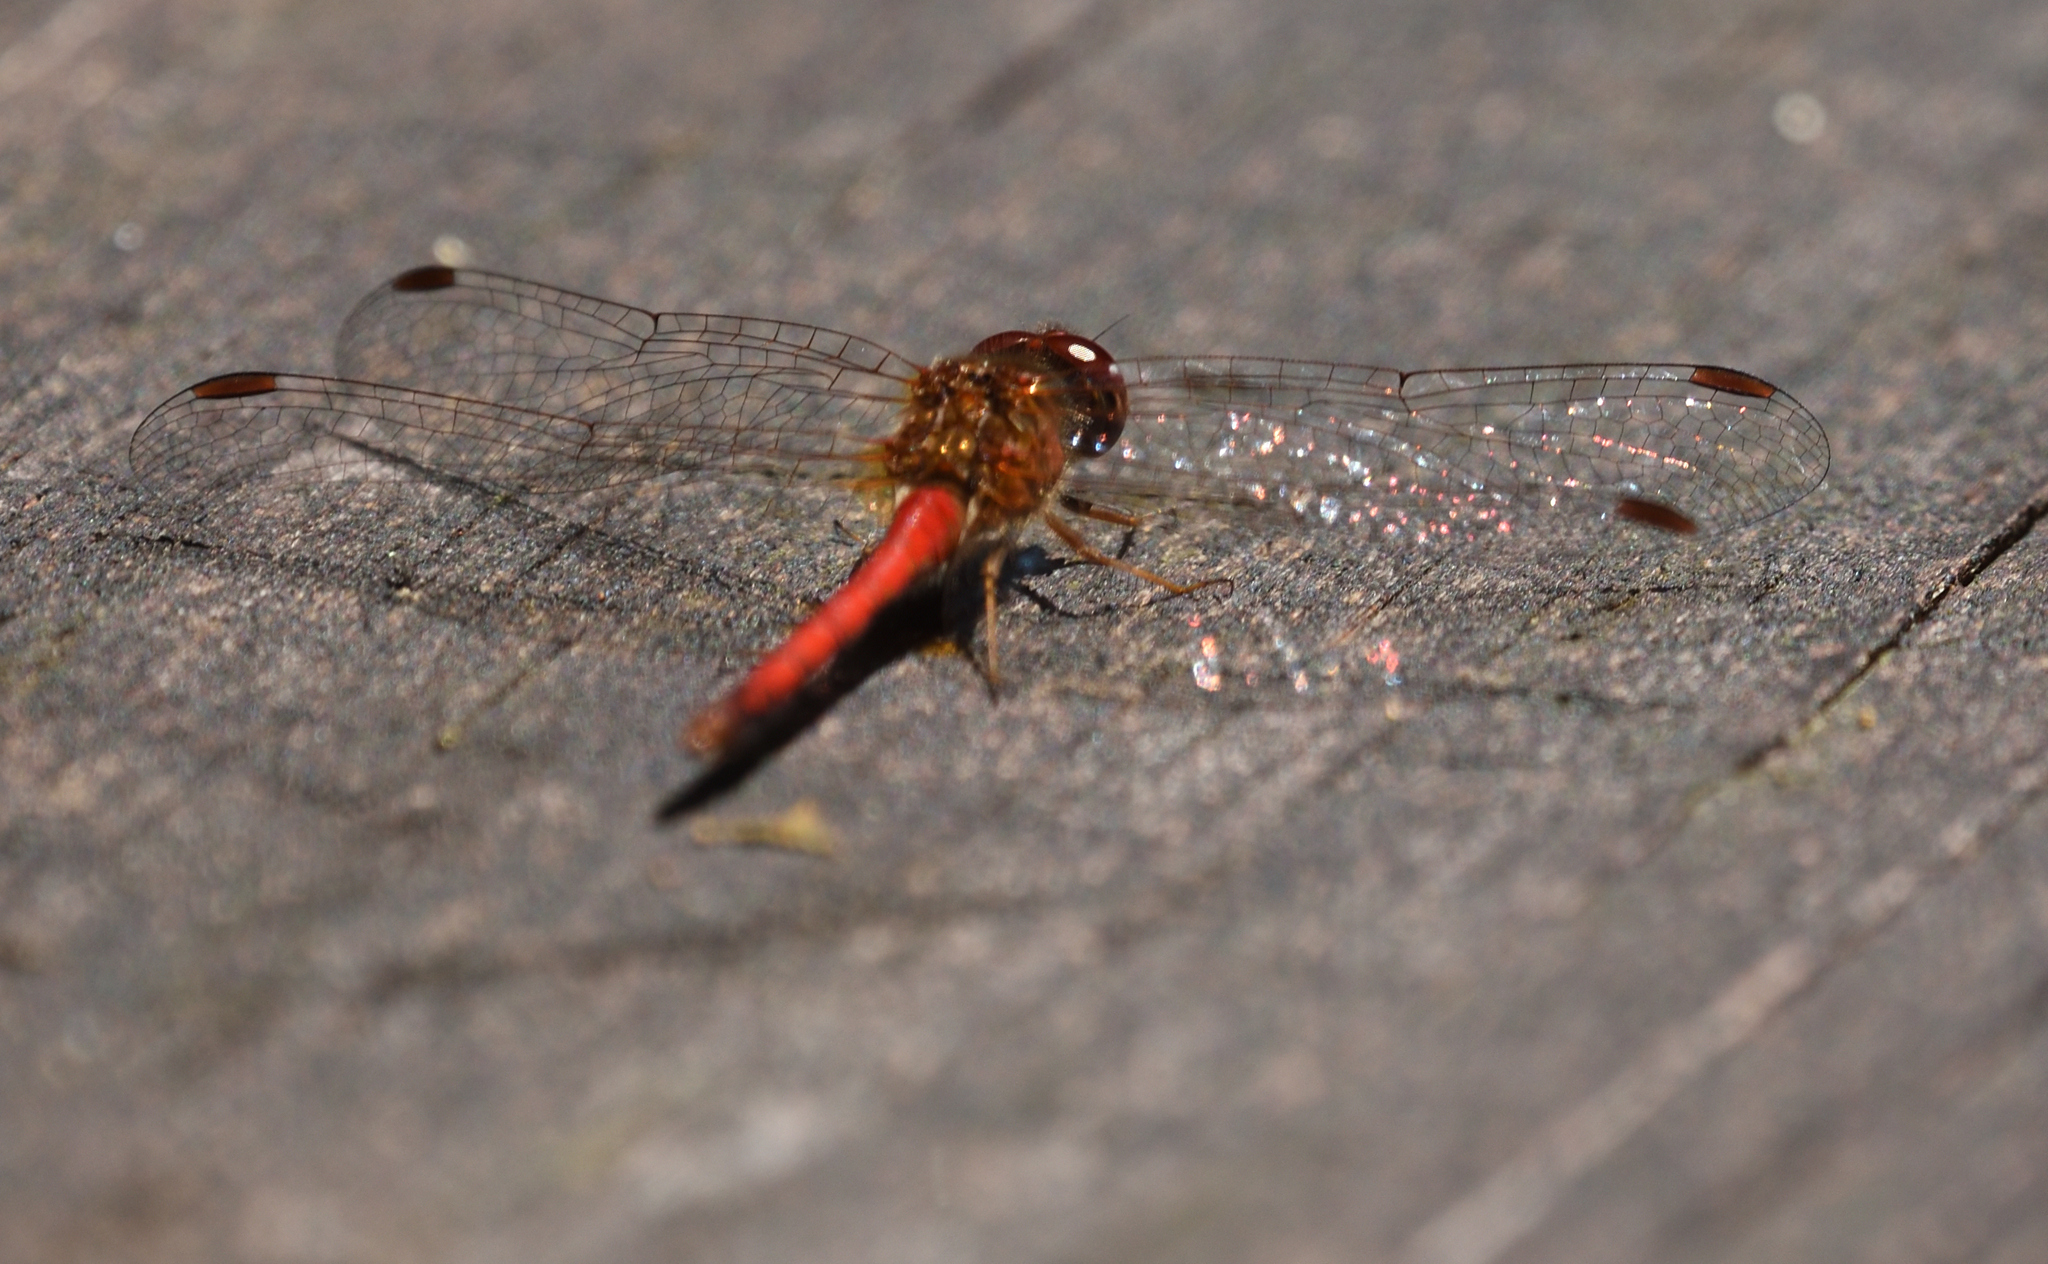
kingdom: Animalia
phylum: Arthropoda
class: Insecta
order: Odonata
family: Libellulidae
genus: Sympetrum
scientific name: Sympetrum vicinum
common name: Autumn meadowhawk
